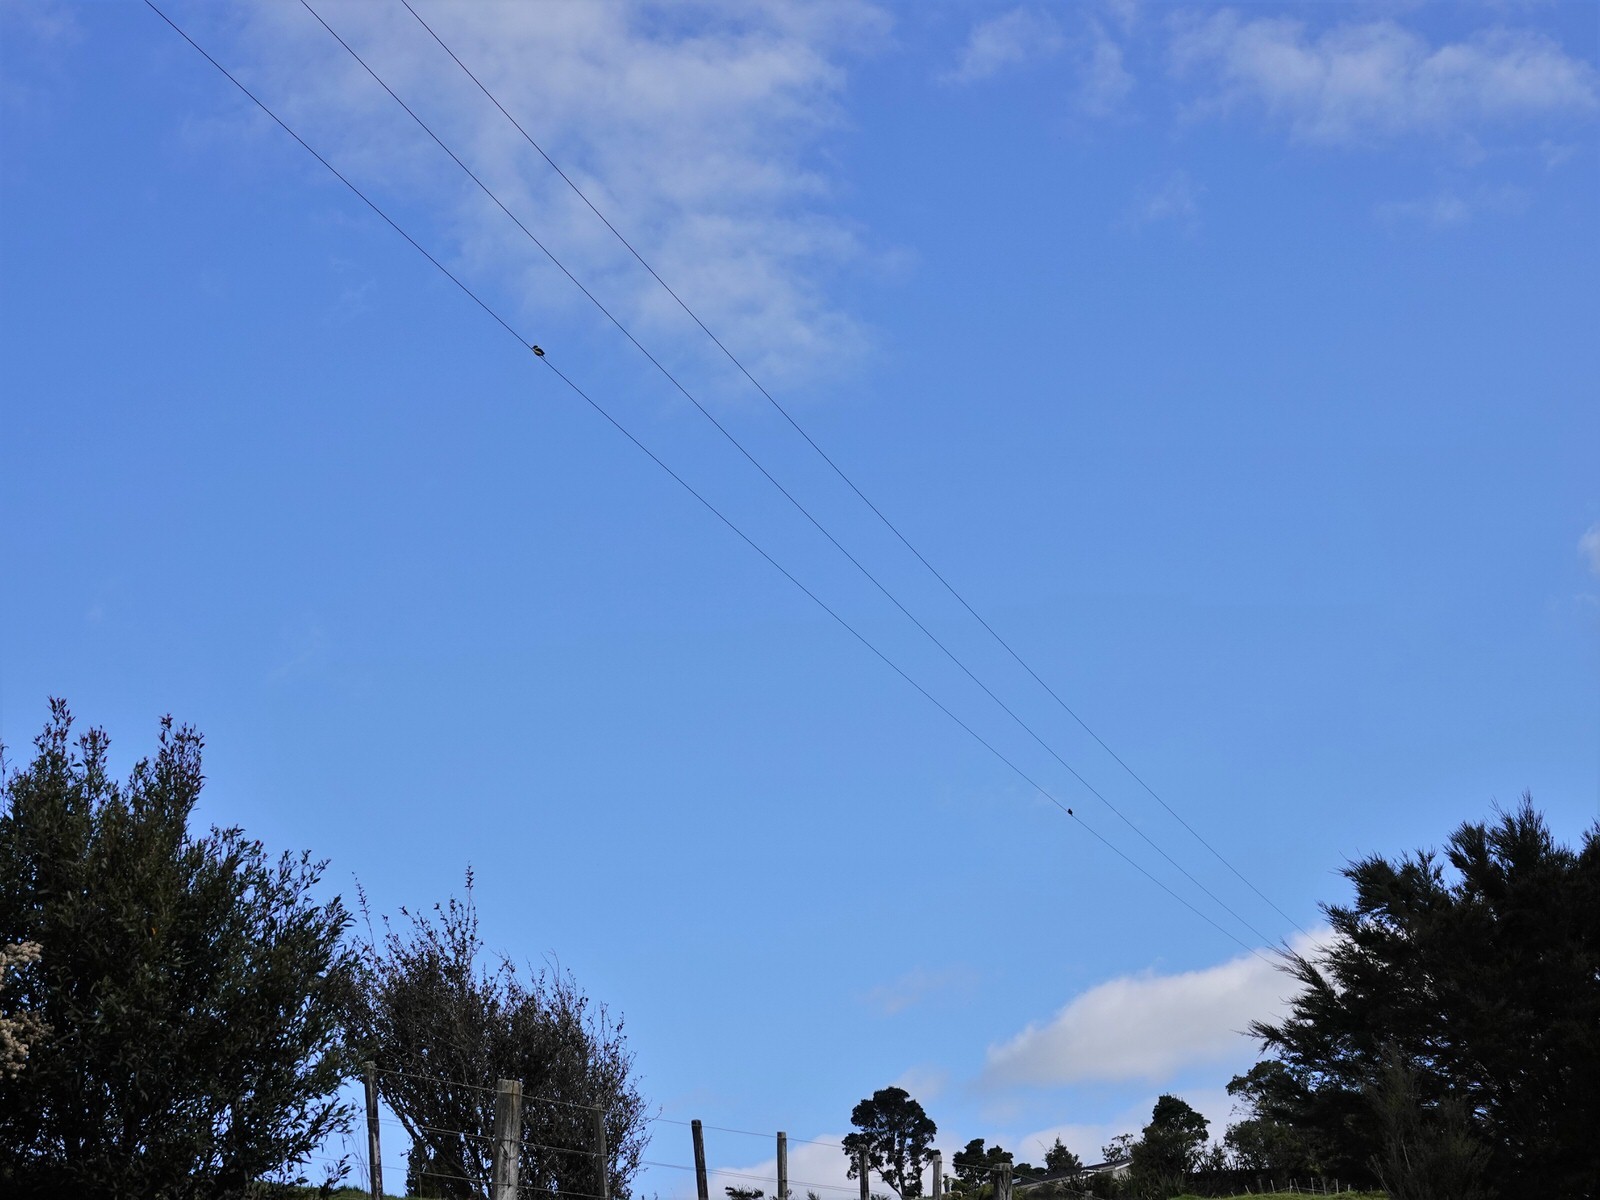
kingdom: Animalia
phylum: Chordata
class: Aves
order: Coraciiformes
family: Alcedinidae
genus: Todiramphus
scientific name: Todiramphus sanctus
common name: Sacred kingfisher
